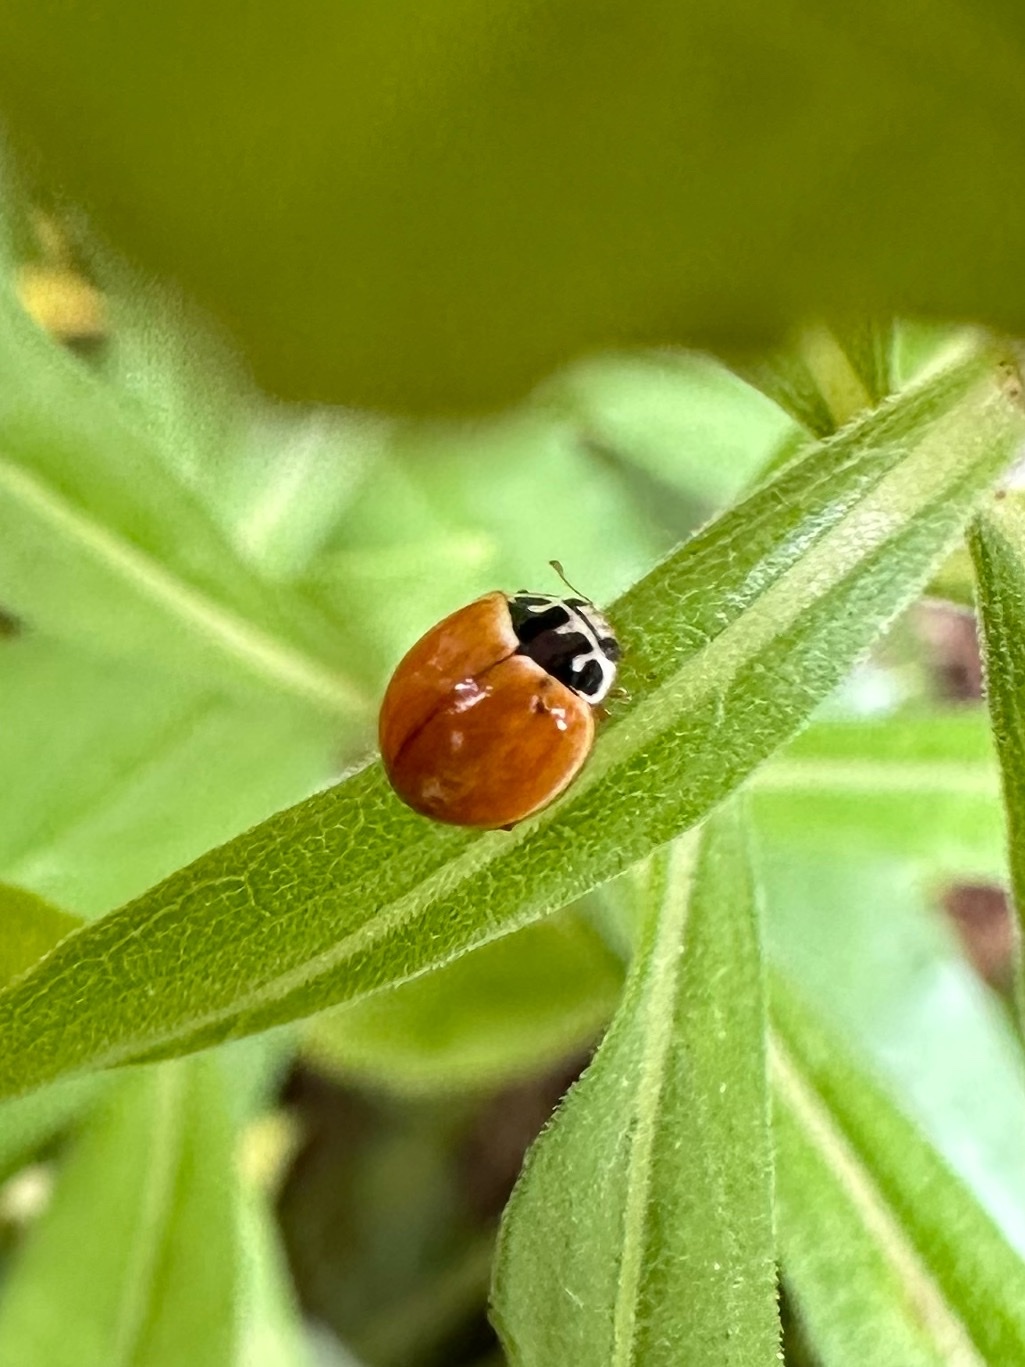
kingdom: Animalia
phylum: Arthropoda
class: Insecta
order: Coleoptera
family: Coccinellidae
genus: Cycloneda
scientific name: Cycloneda munda
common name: Polished lady beetle
